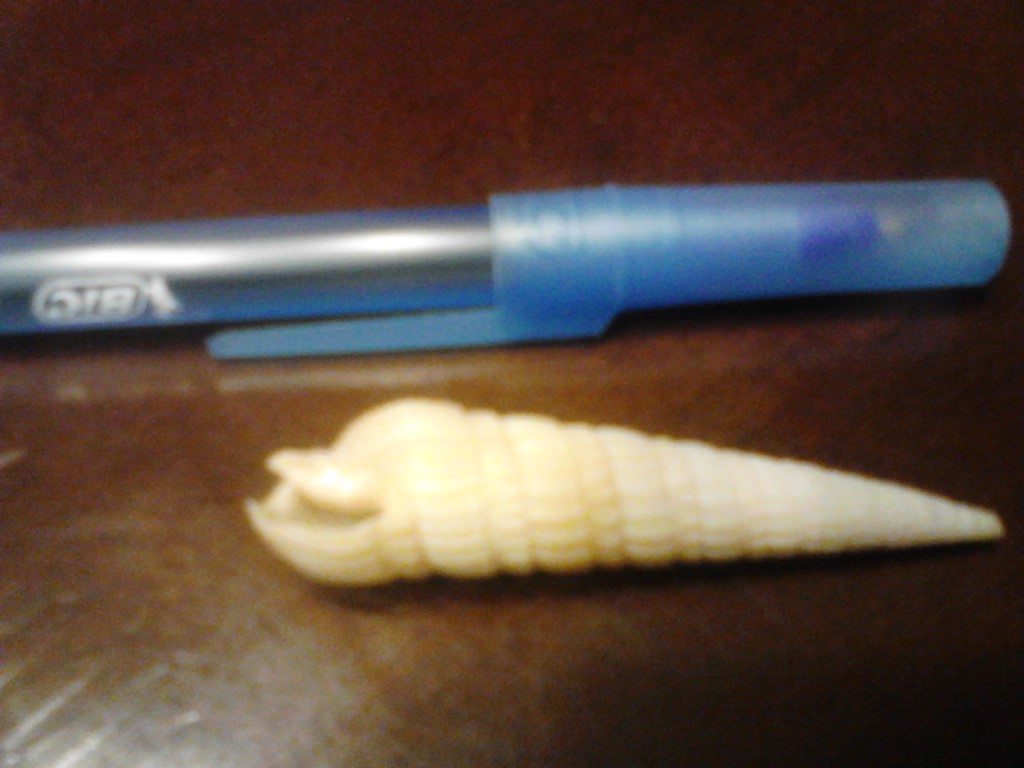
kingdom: Animalia
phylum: Mollusca
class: Gastropoda
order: Neogastropoda
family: Terebridae
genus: Neoterebra
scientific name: Neoterebra dislocata
